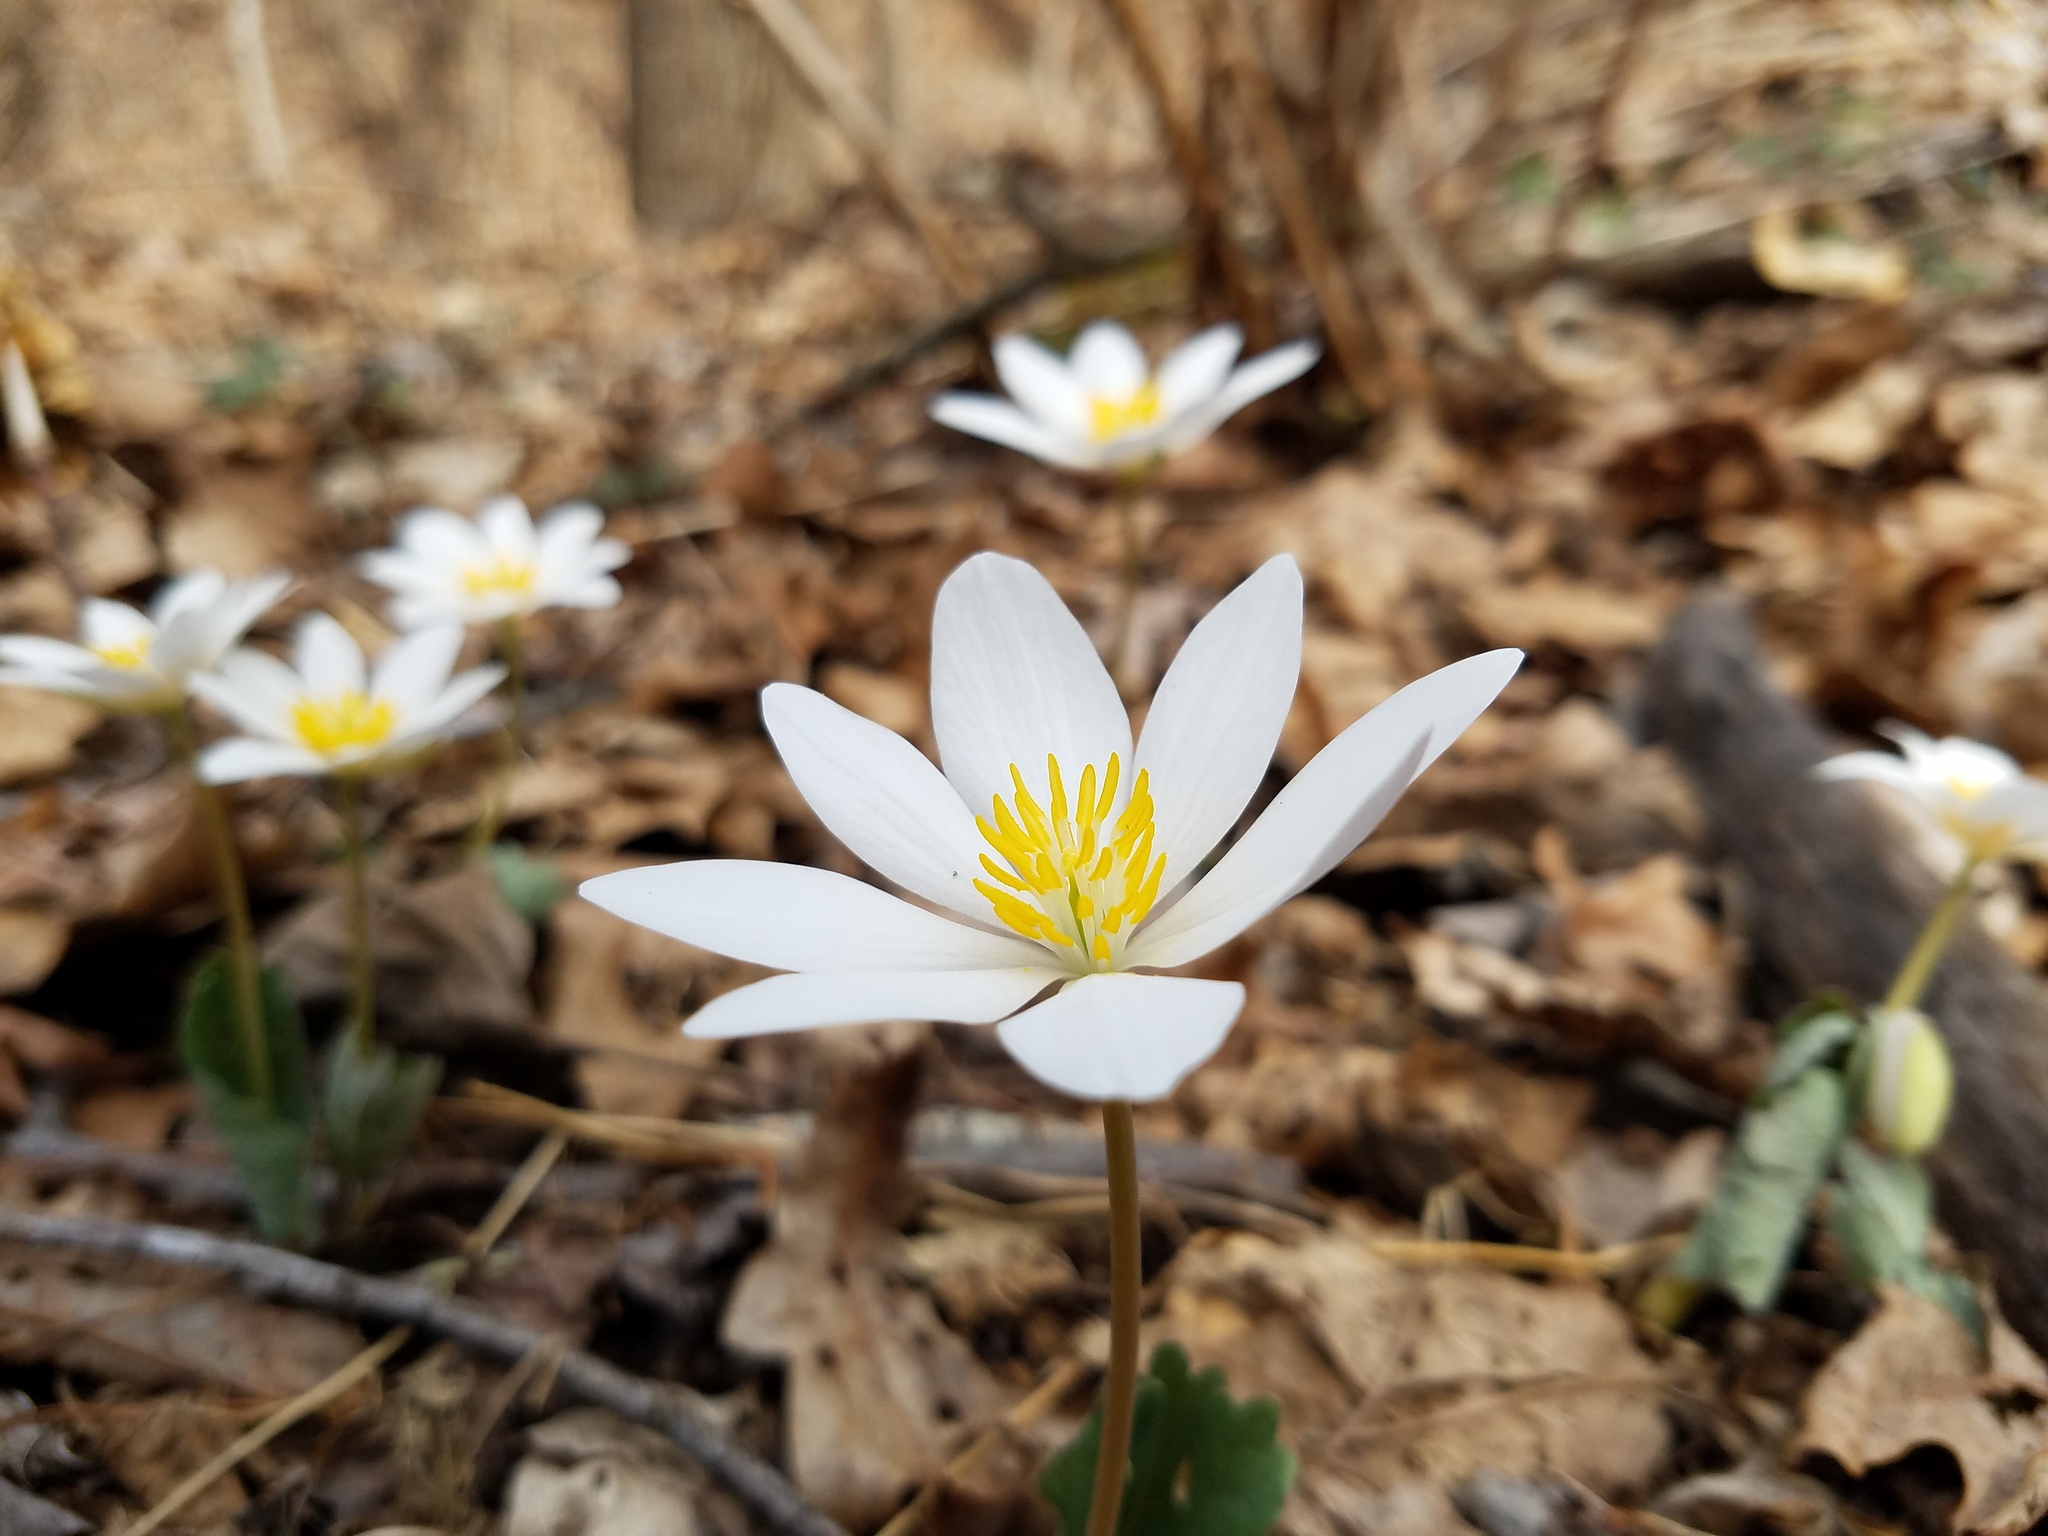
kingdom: Plantae
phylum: Tracheophyta
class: Magnoliopsida
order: Ranunculales
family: Papaveraceae
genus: Sanguinaria
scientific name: Sanguinaria canadensis
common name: Bloodroot
